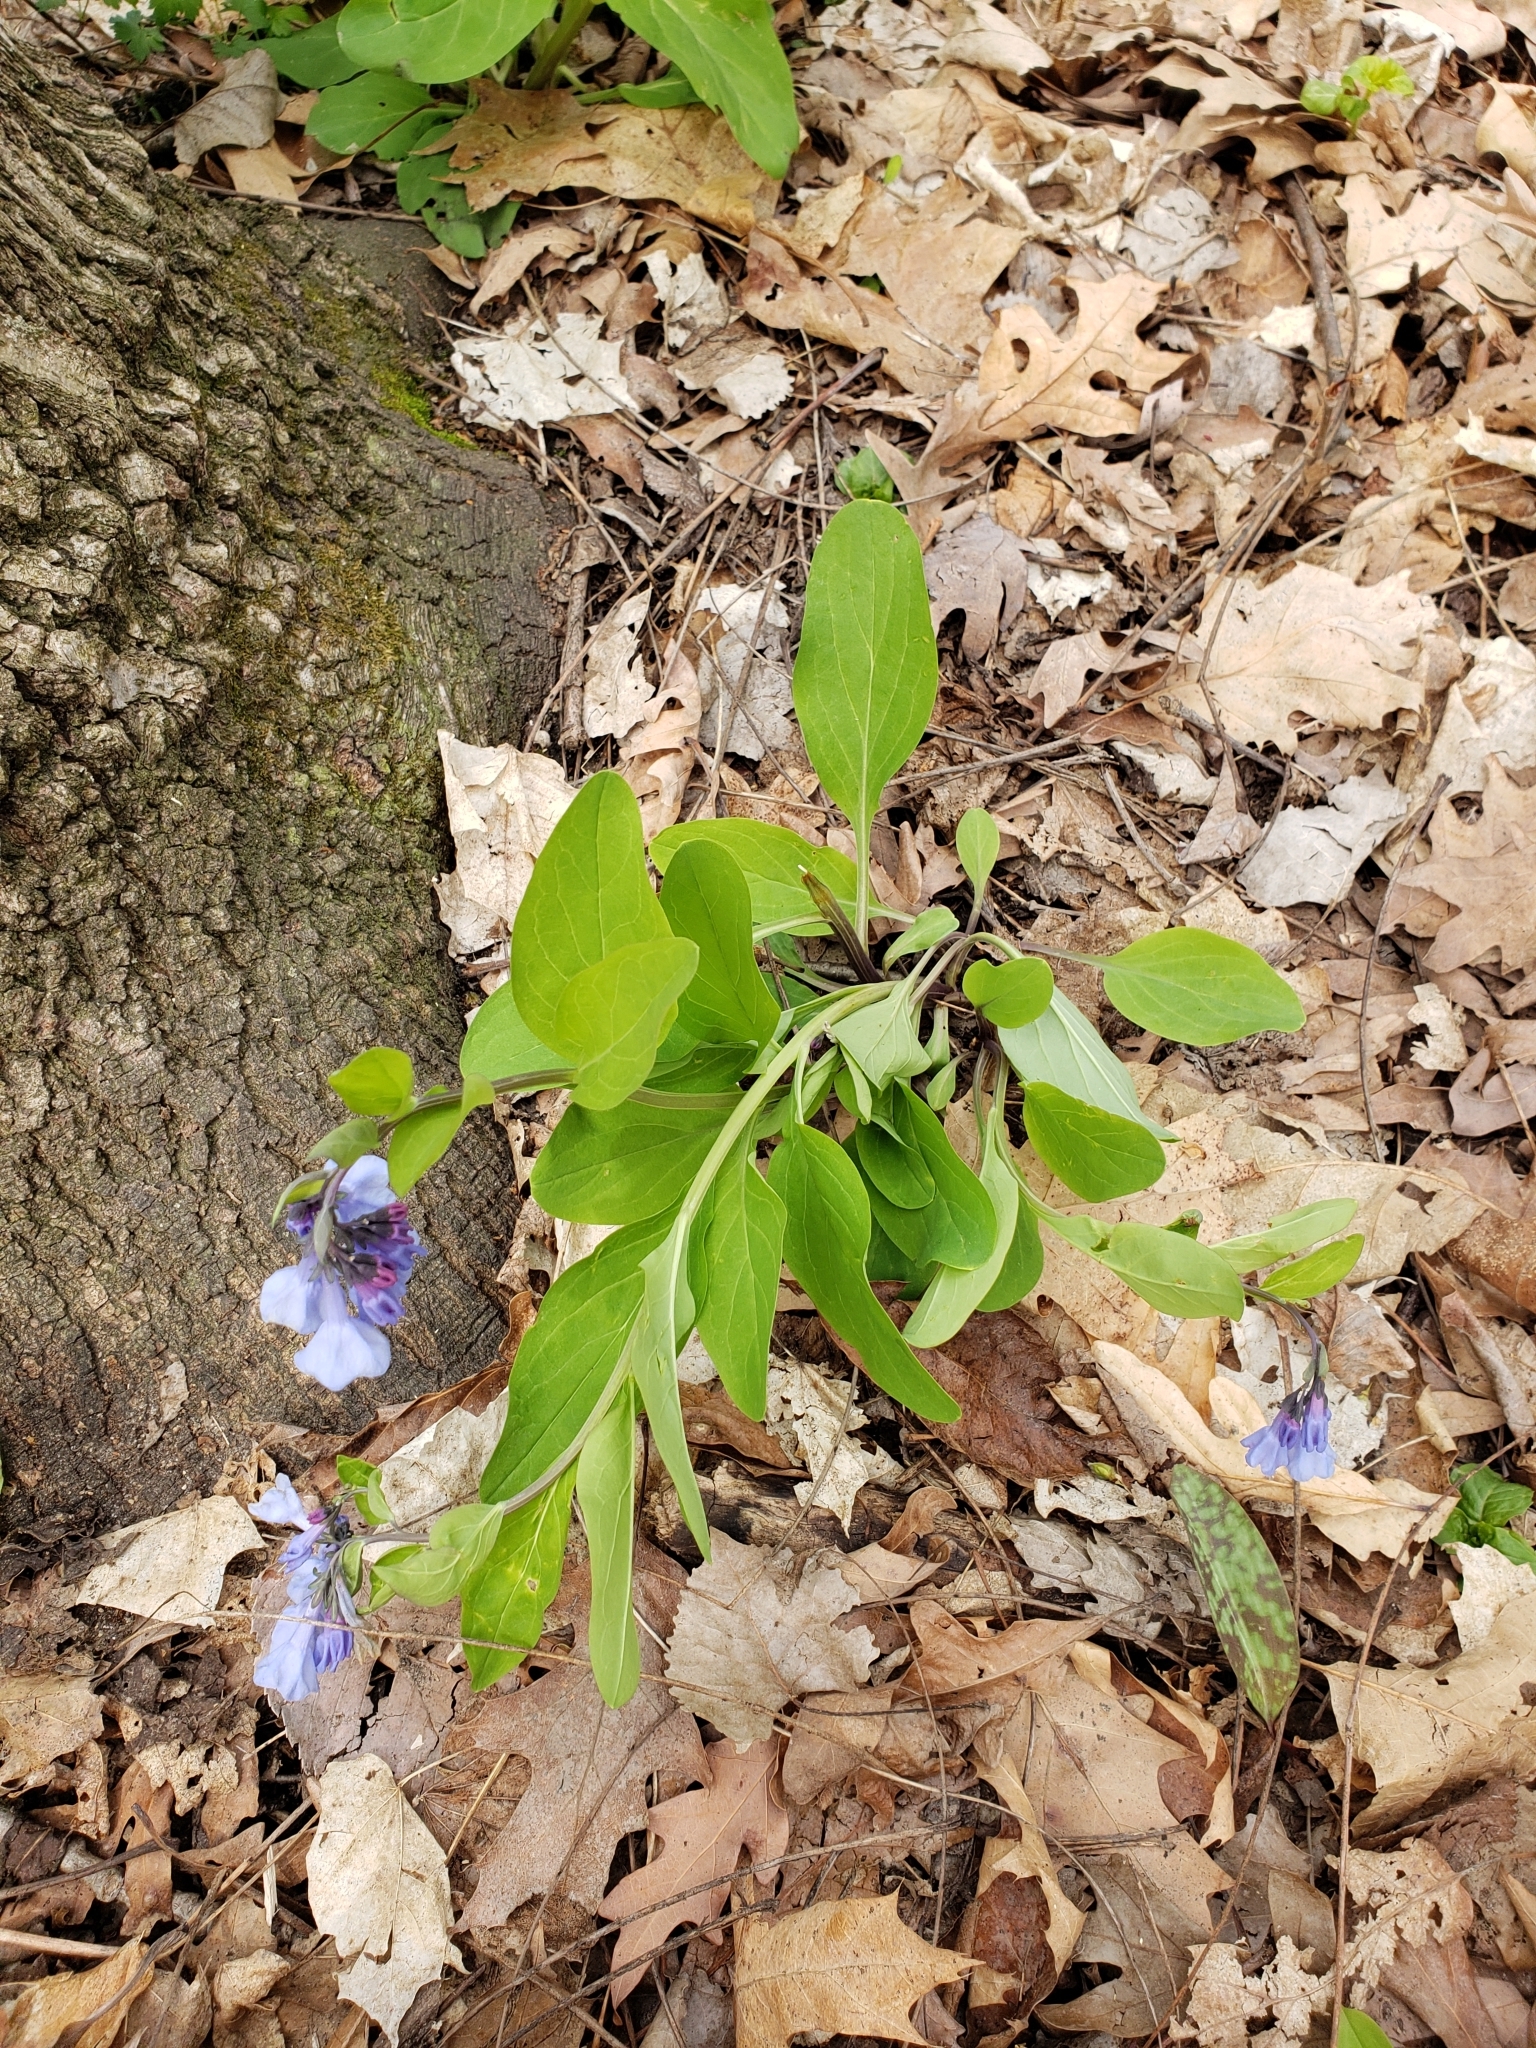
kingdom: Plantae
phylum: Tracheophyta
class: Magnoliopsida
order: Boraginales
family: Boraginaceae
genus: Mertensia
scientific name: Mertensia virginica
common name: Virginia bluebells
